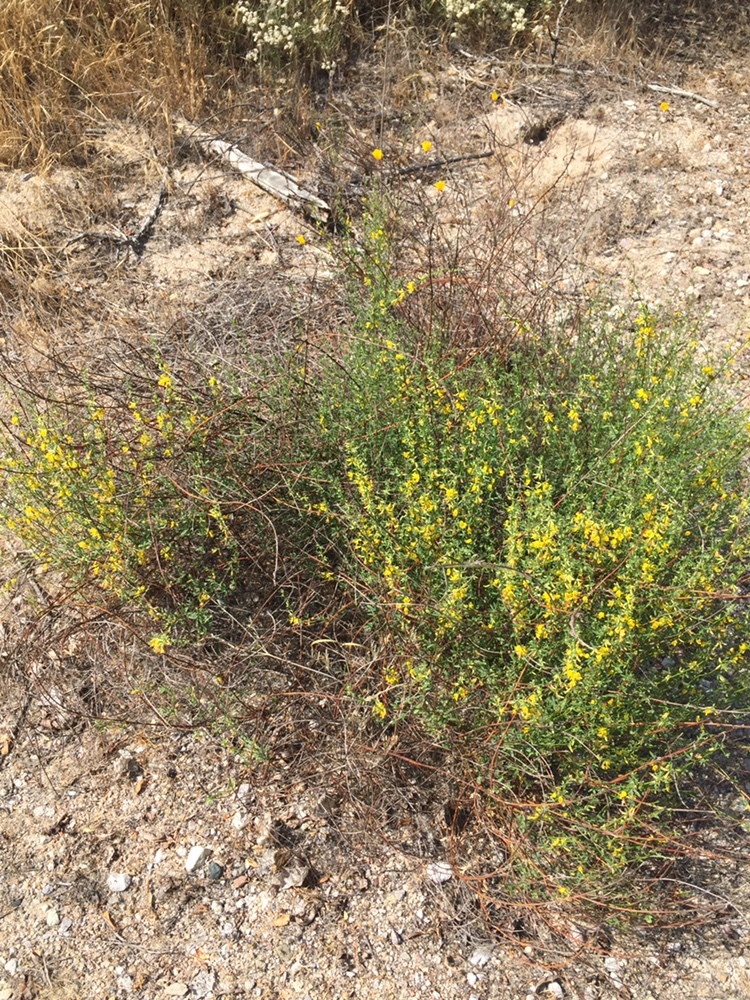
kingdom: Plantae
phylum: Tracheophyta
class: Magnoliopsida
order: Fabales
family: Fabaceae
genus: Acmispon
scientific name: Acmispon glaber
